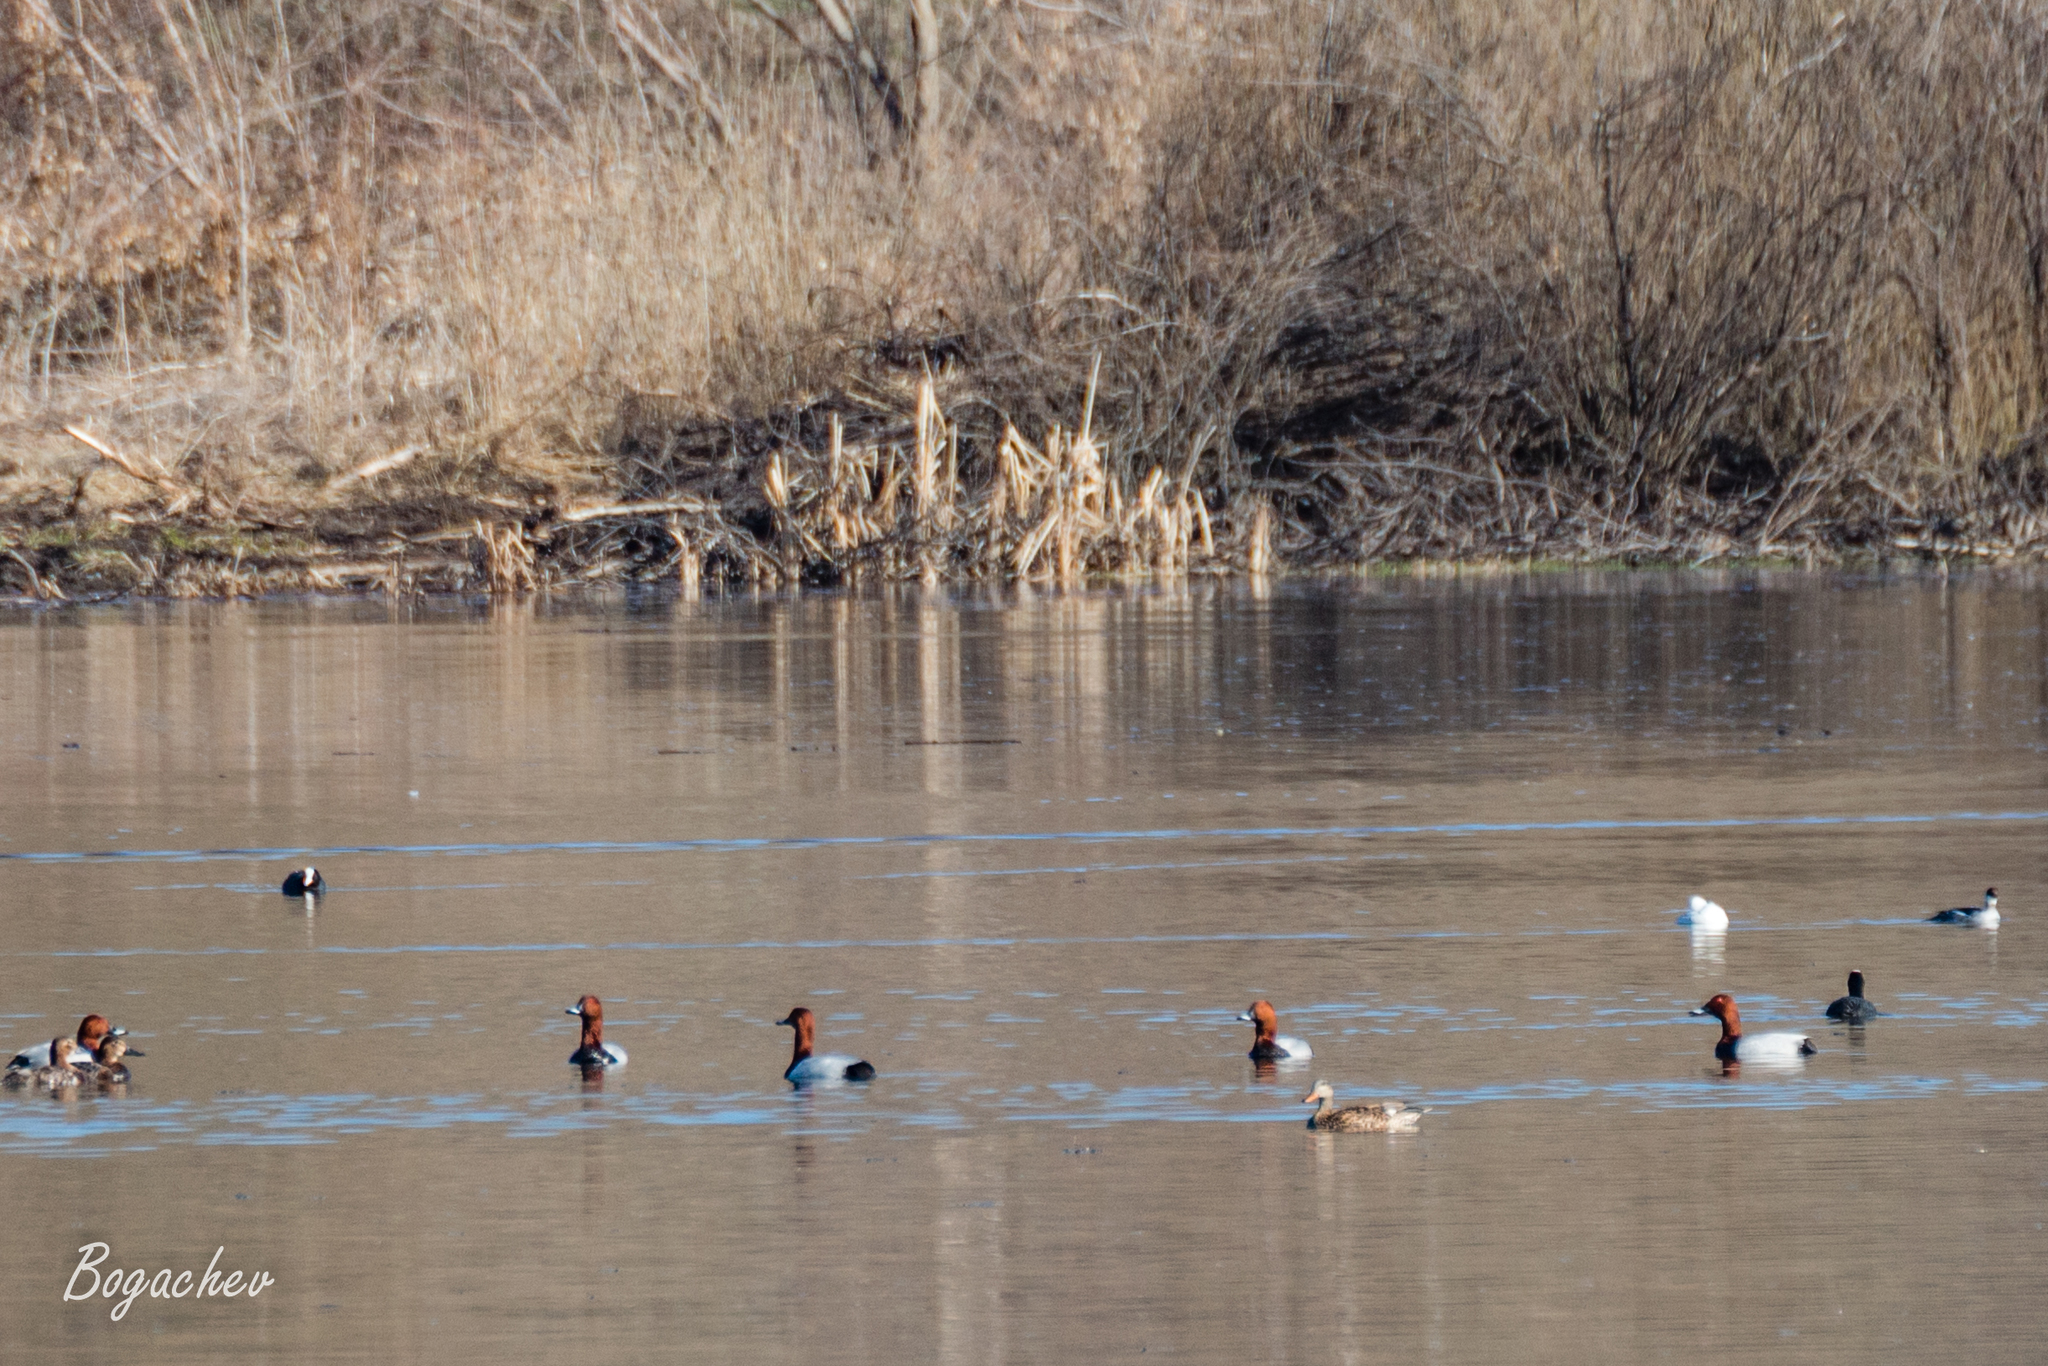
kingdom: Animalia
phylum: Chordata
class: Aves
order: Anseriformes
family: Anatidae
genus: Aythya
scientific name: Aythya ferina
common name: Common pochard
